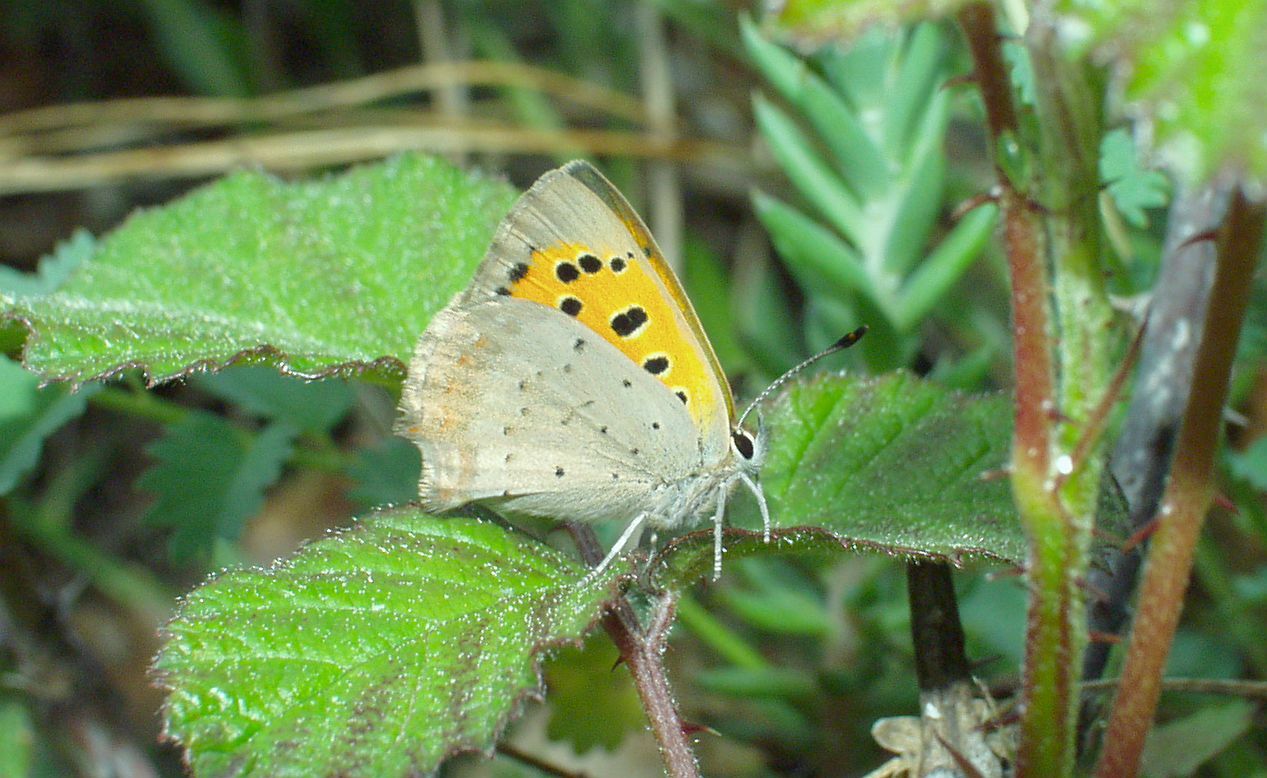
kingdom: Animalia
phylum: Arthropoda
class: Insecta
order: Lepidoptera
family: Lycaenidae
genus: Lycaena
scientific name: Lycaena phlaeas
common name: Small copper
